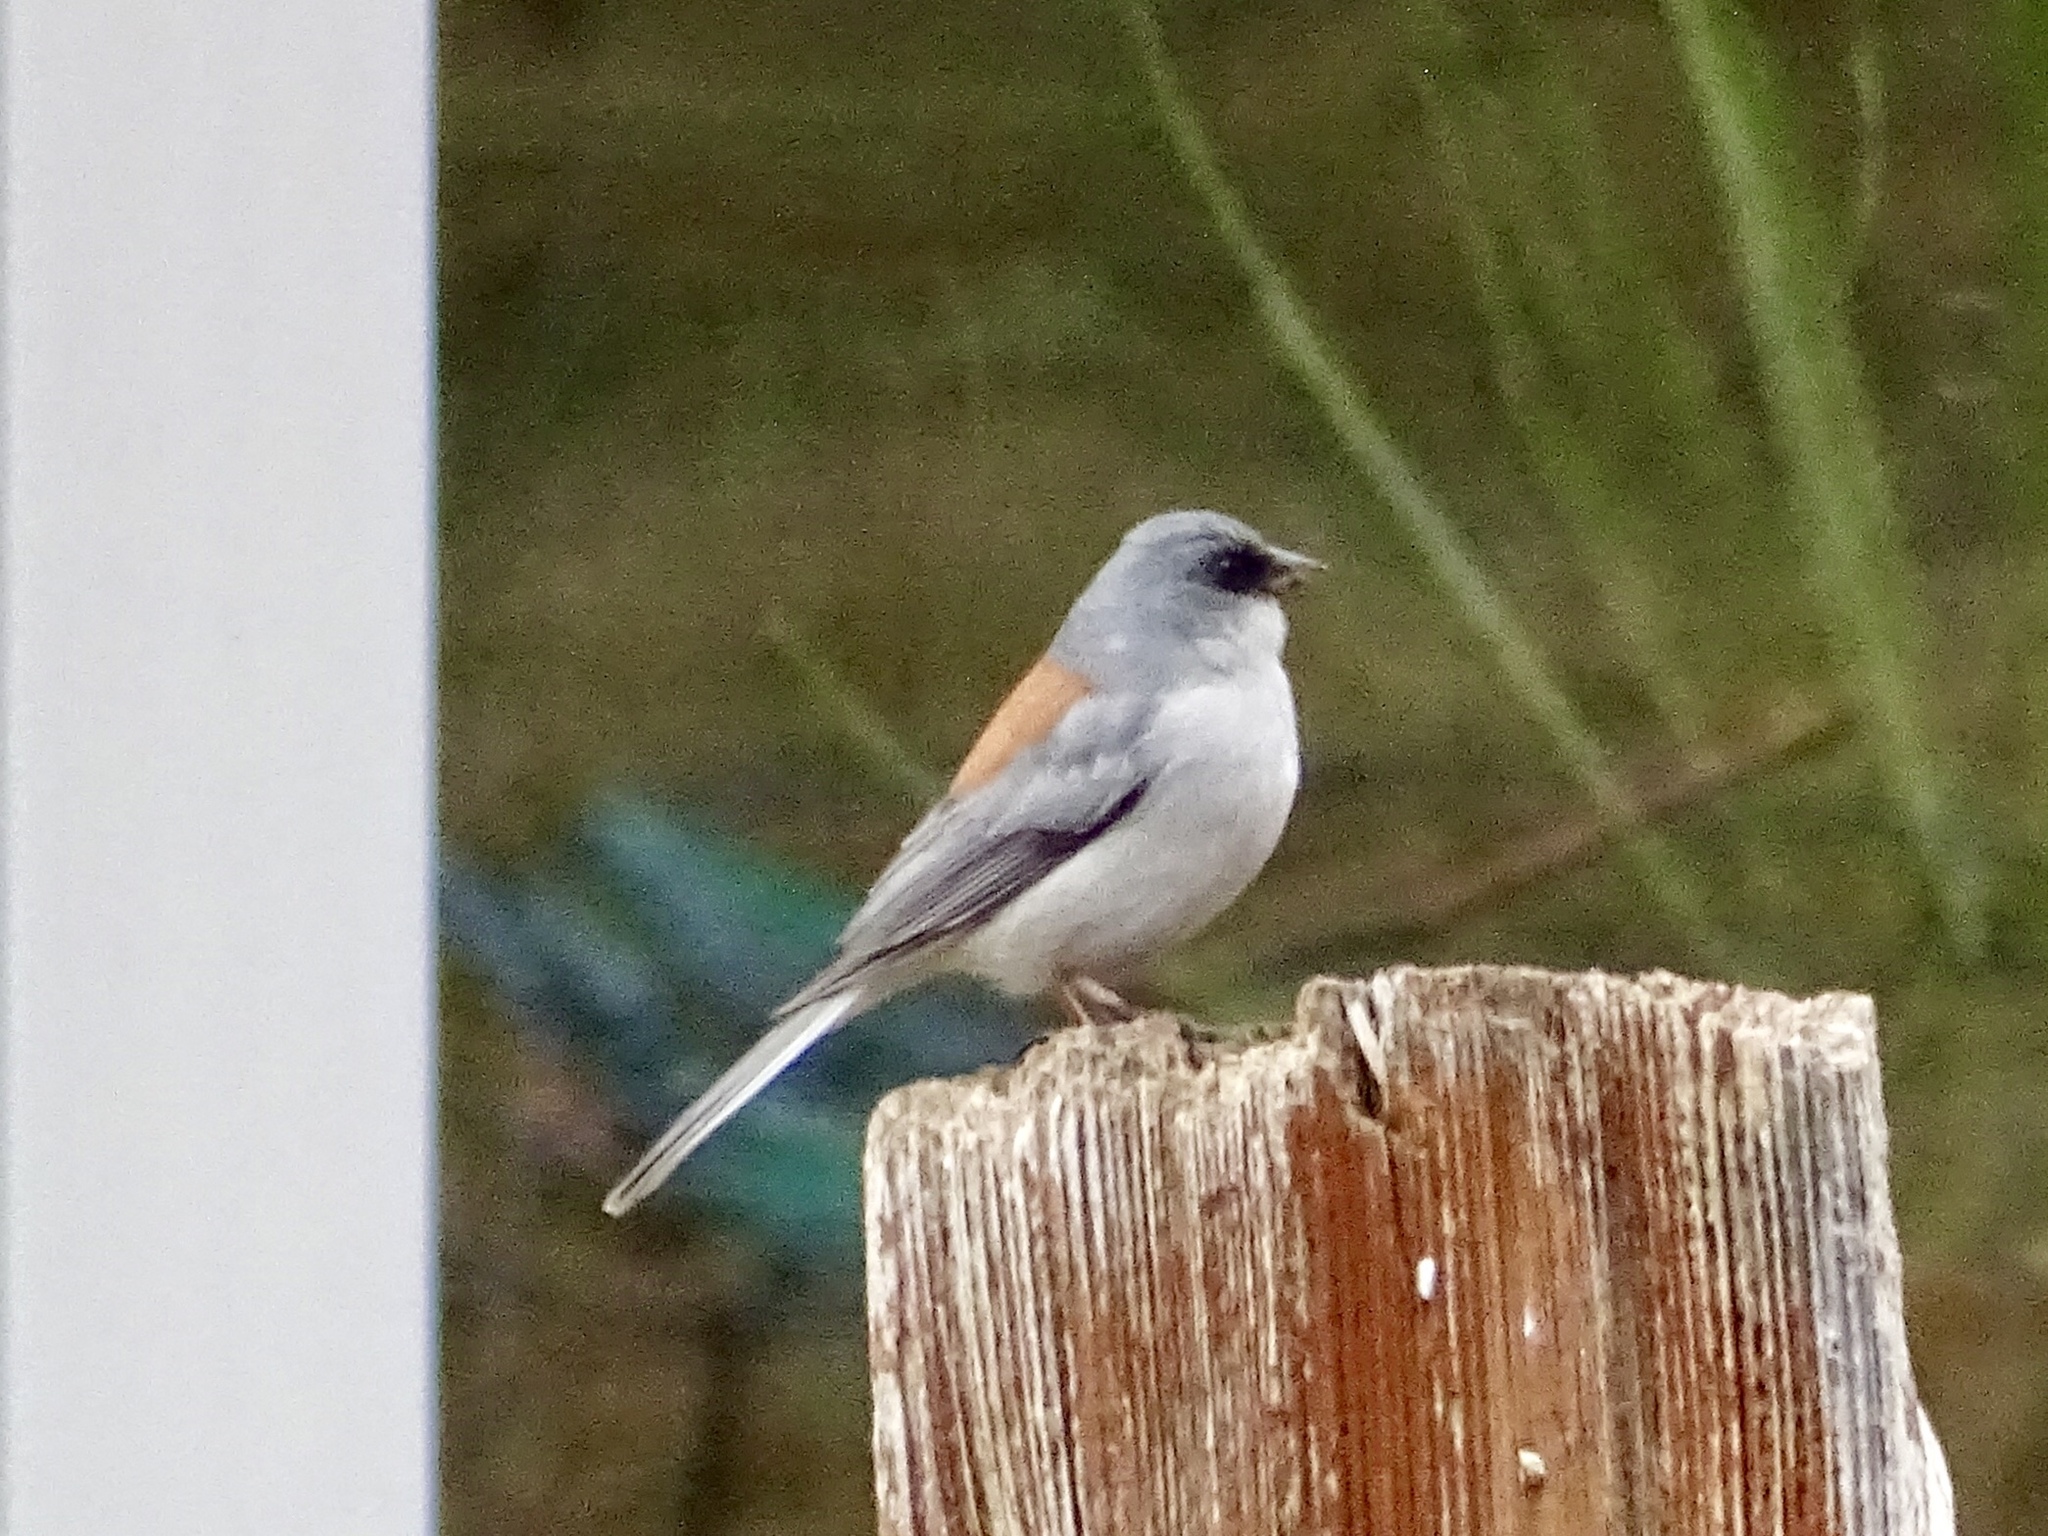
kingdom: Animalia
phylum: Chordata
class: Aves
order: Passeriformes
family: Passerellidae
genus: Junco
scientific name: Junco hyemalis
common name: Dark-eyed junco
